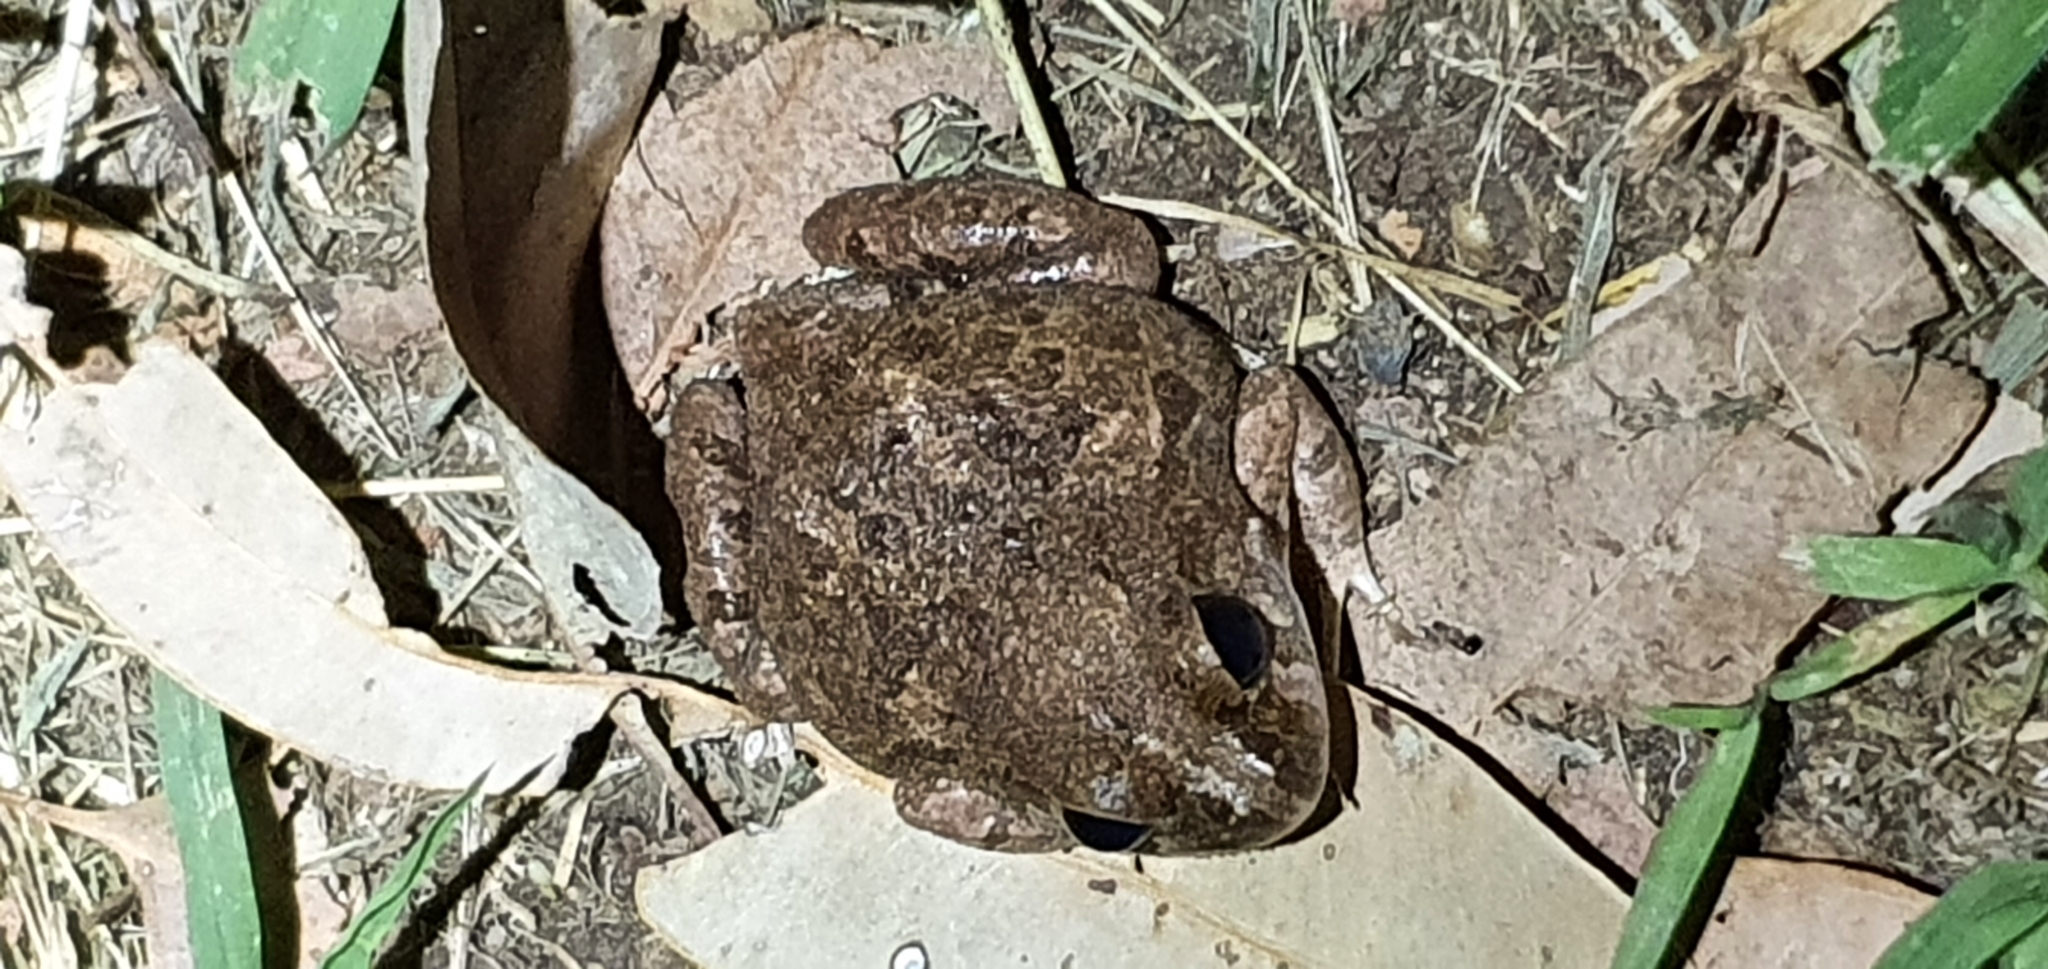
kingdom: Animalia
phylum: Chordata
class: Amphibia
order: Anura
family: Limnodynastidae
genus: Platyplectrum
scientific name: Platyplectrum ornatum
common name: Ornate burrowing frog
